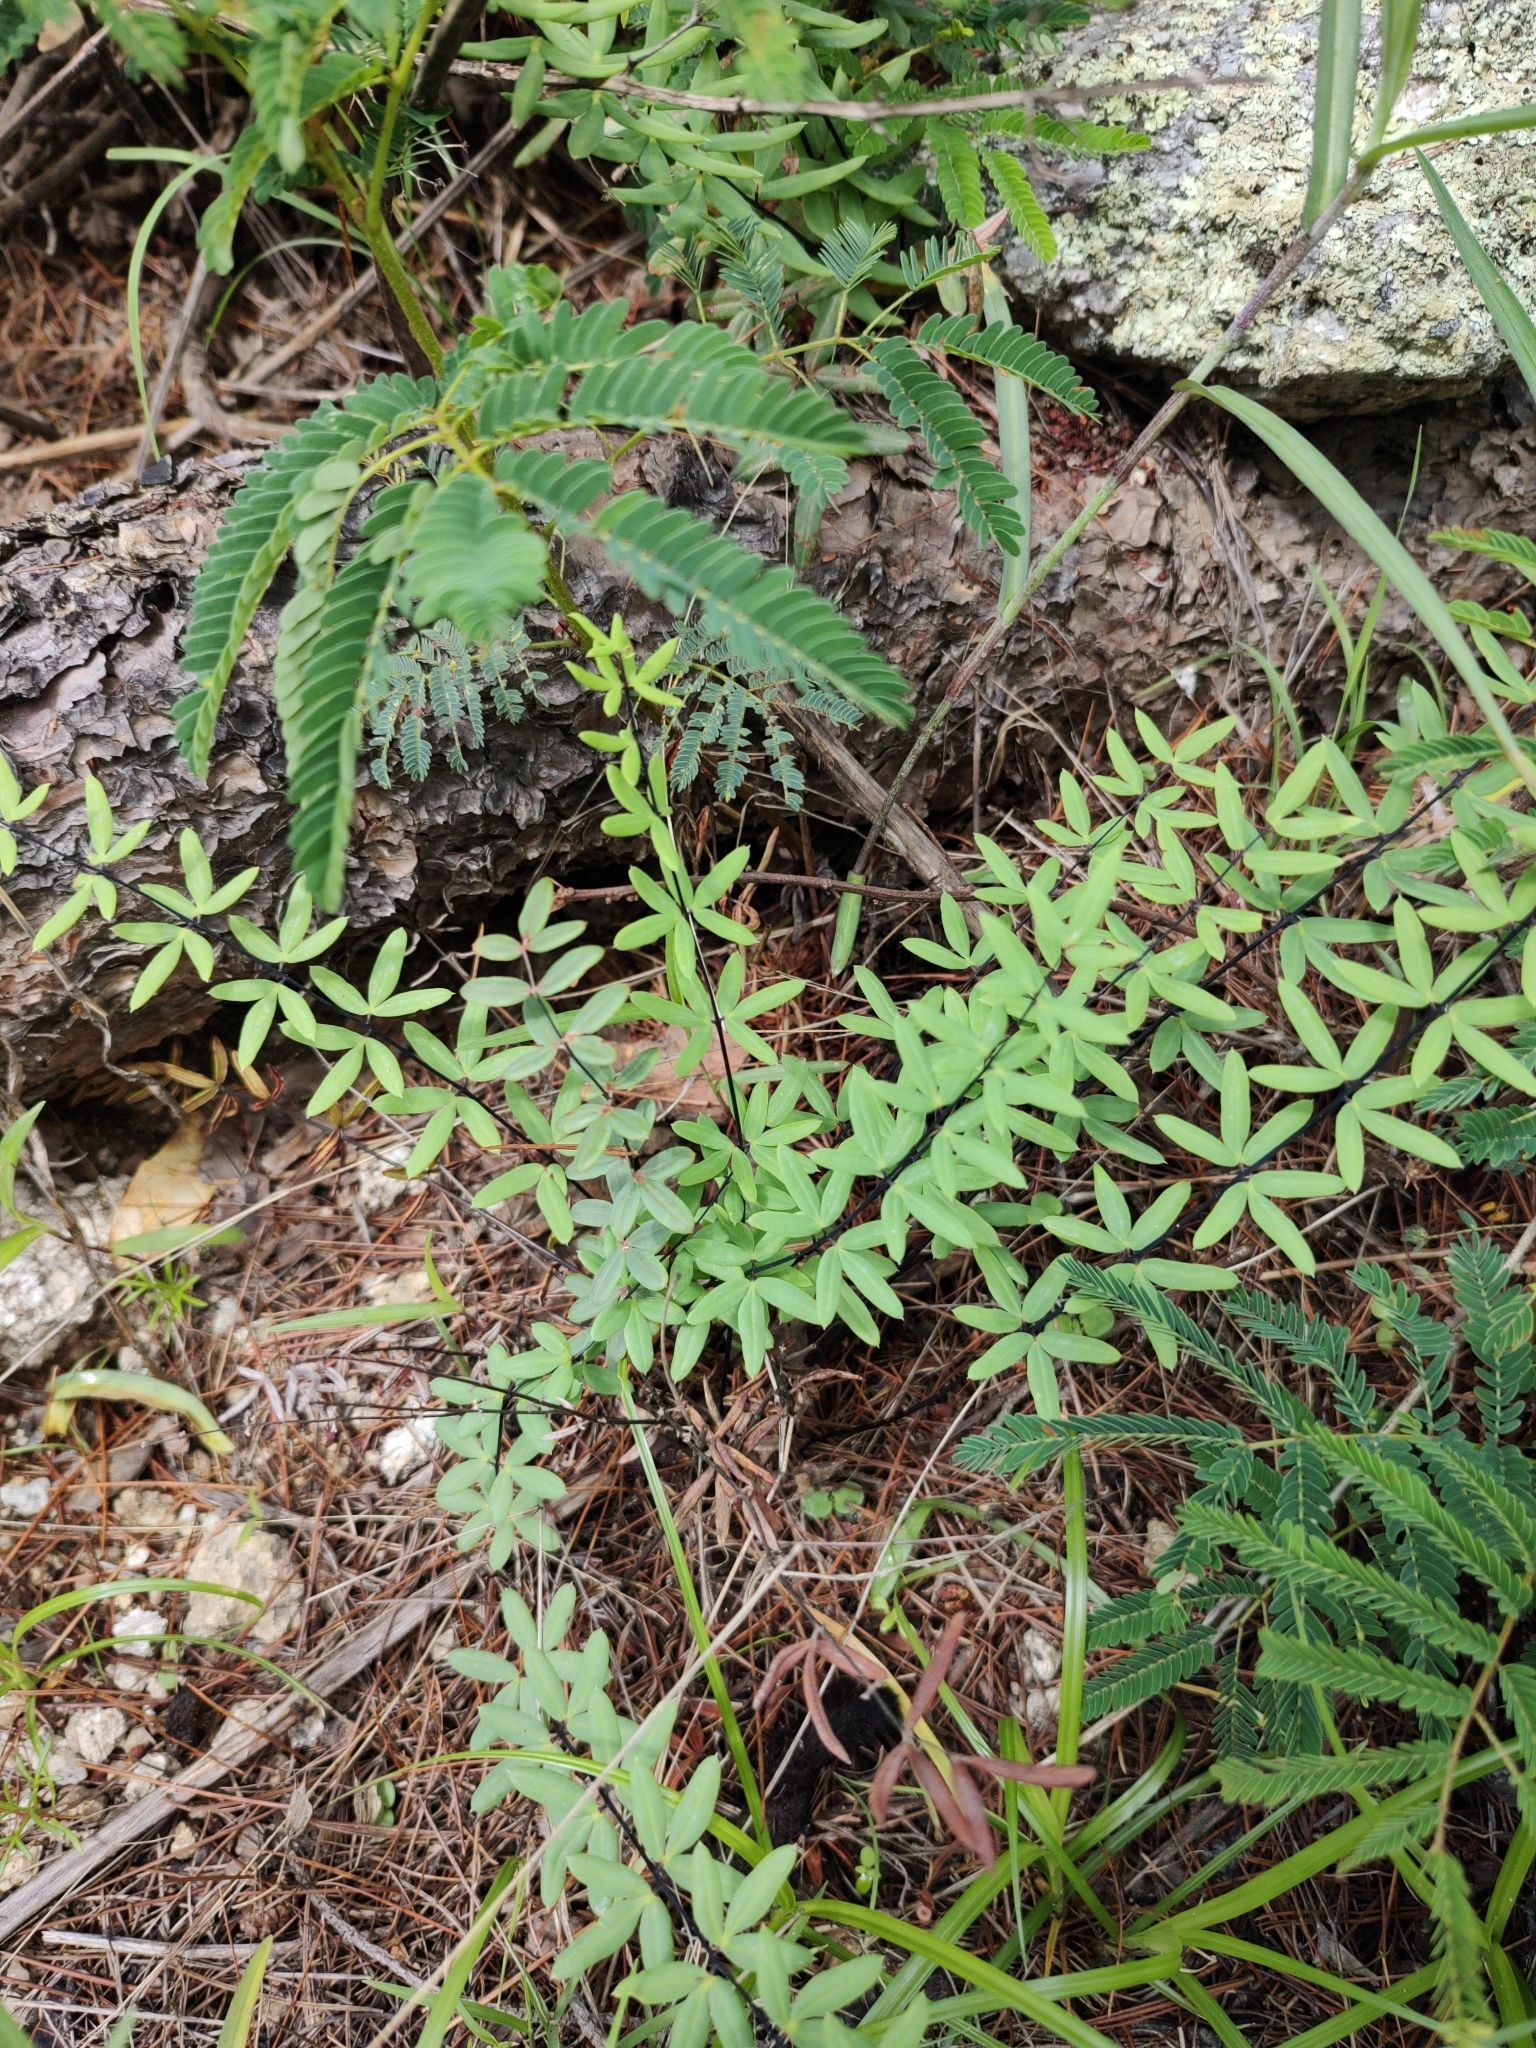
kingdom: Plantae
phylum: Tracheophyta
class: Polypodiopsida
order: Polypodiales
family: Pteridaceae
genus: Pellaea
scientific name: Pellaea ternifolia
